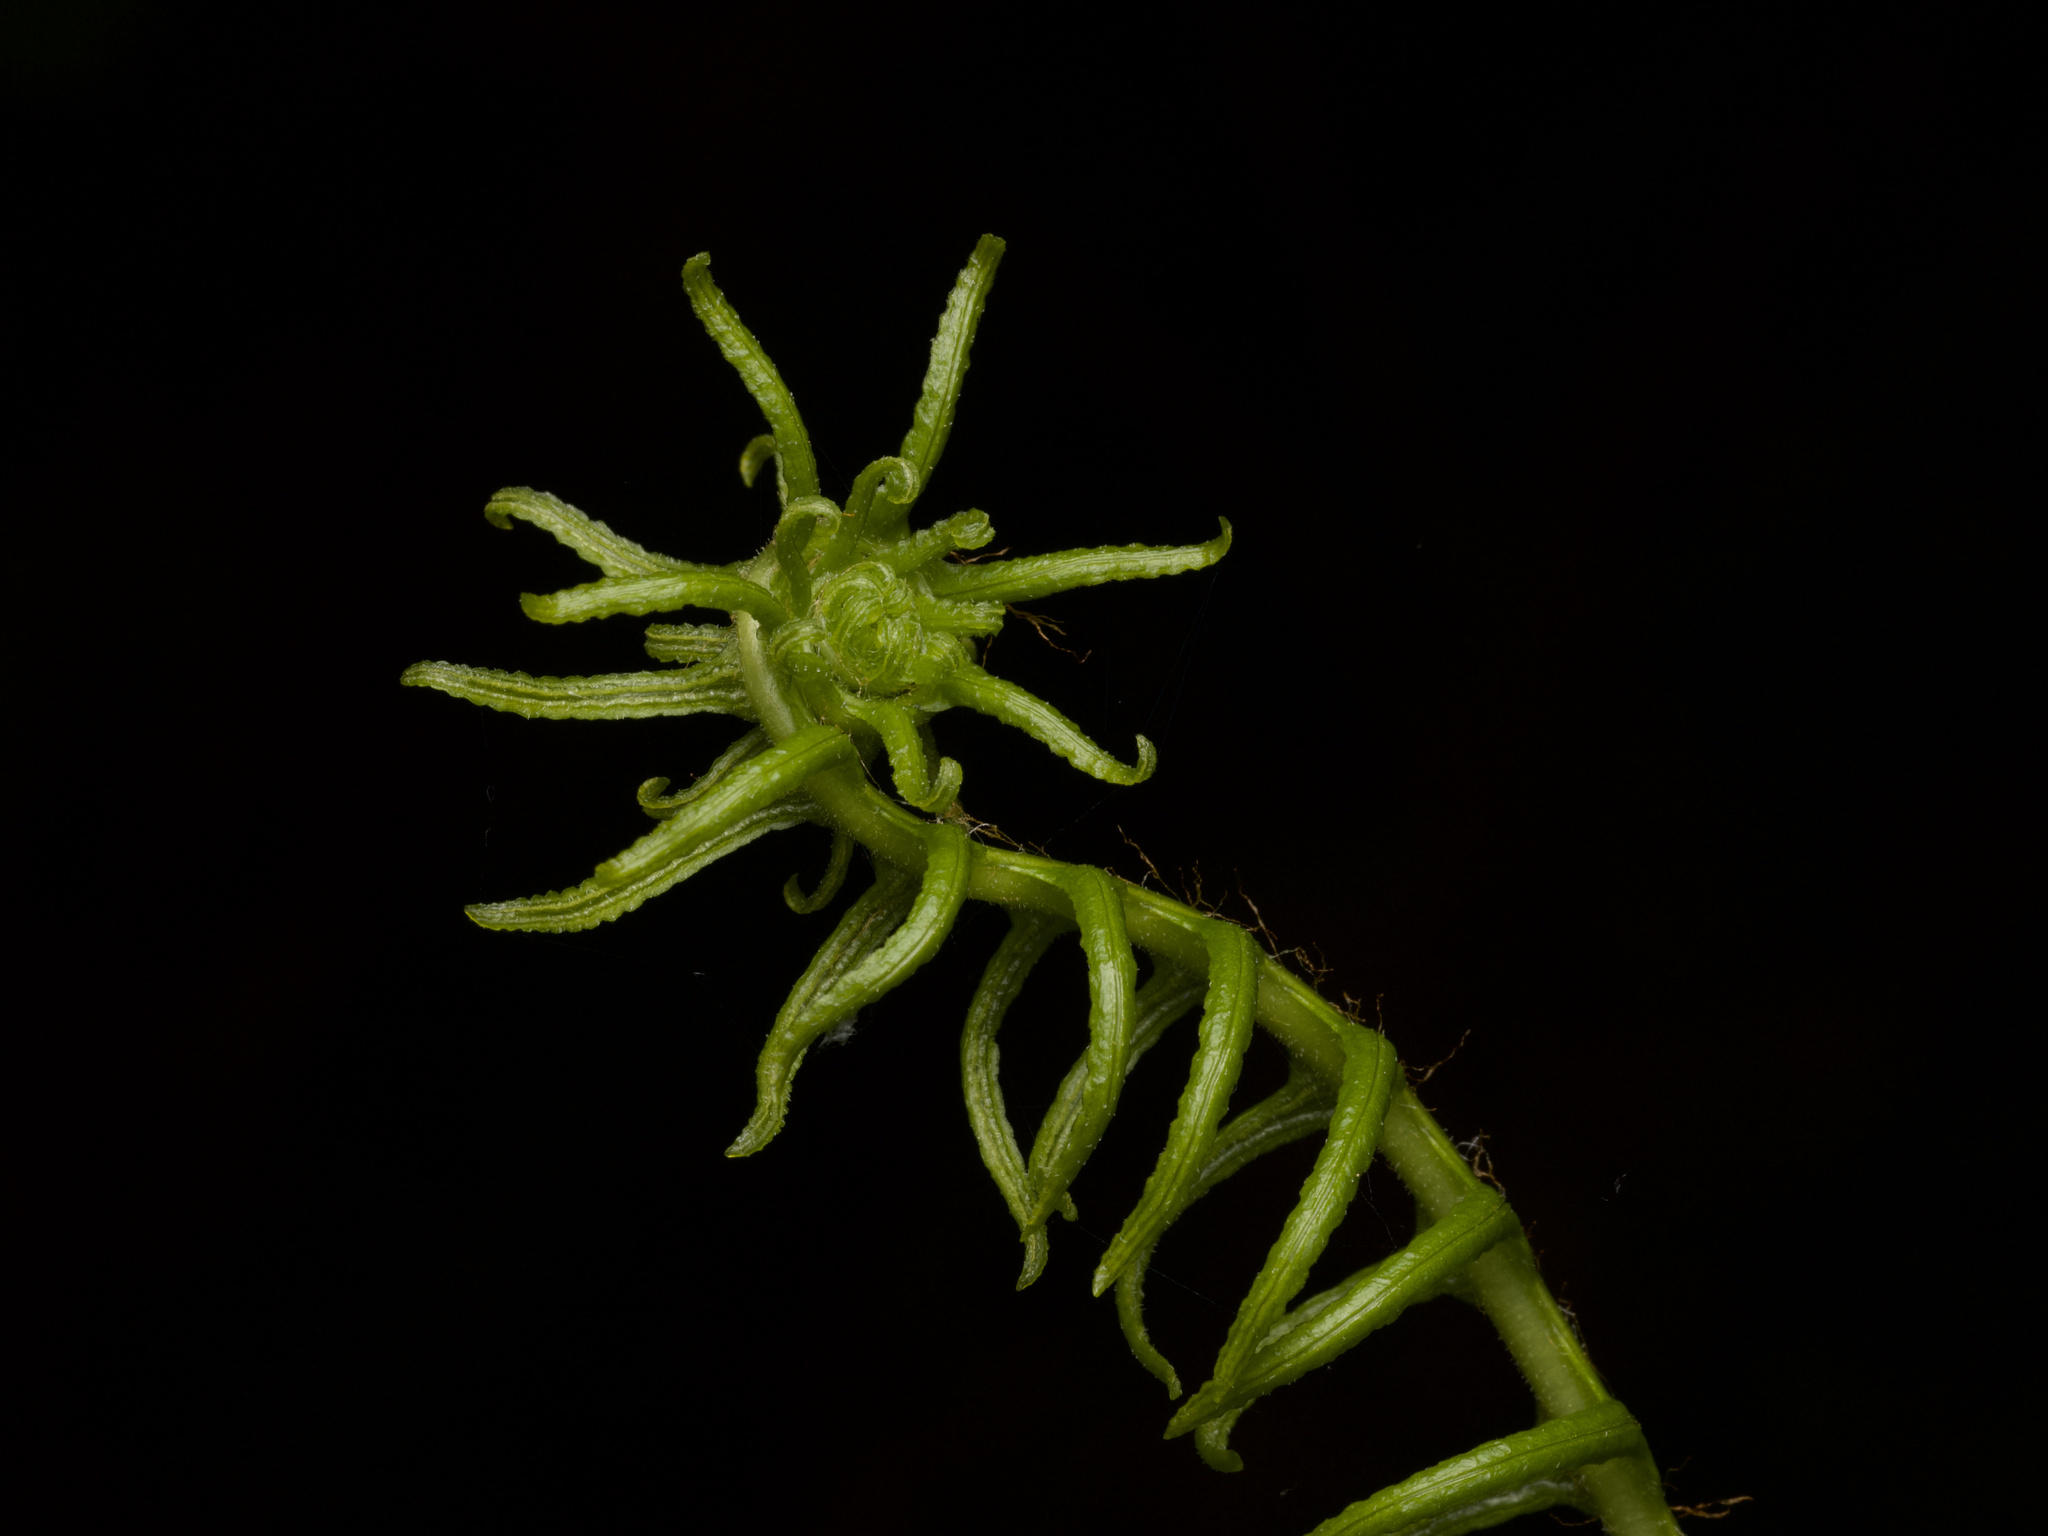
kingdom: Plantae
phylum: Tracheophyta
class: Polypodiopsida
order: Polypodiales
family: Blechnaceae
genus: Struthiopteris
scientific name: Struthiopteris spicant
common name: Deer fern
